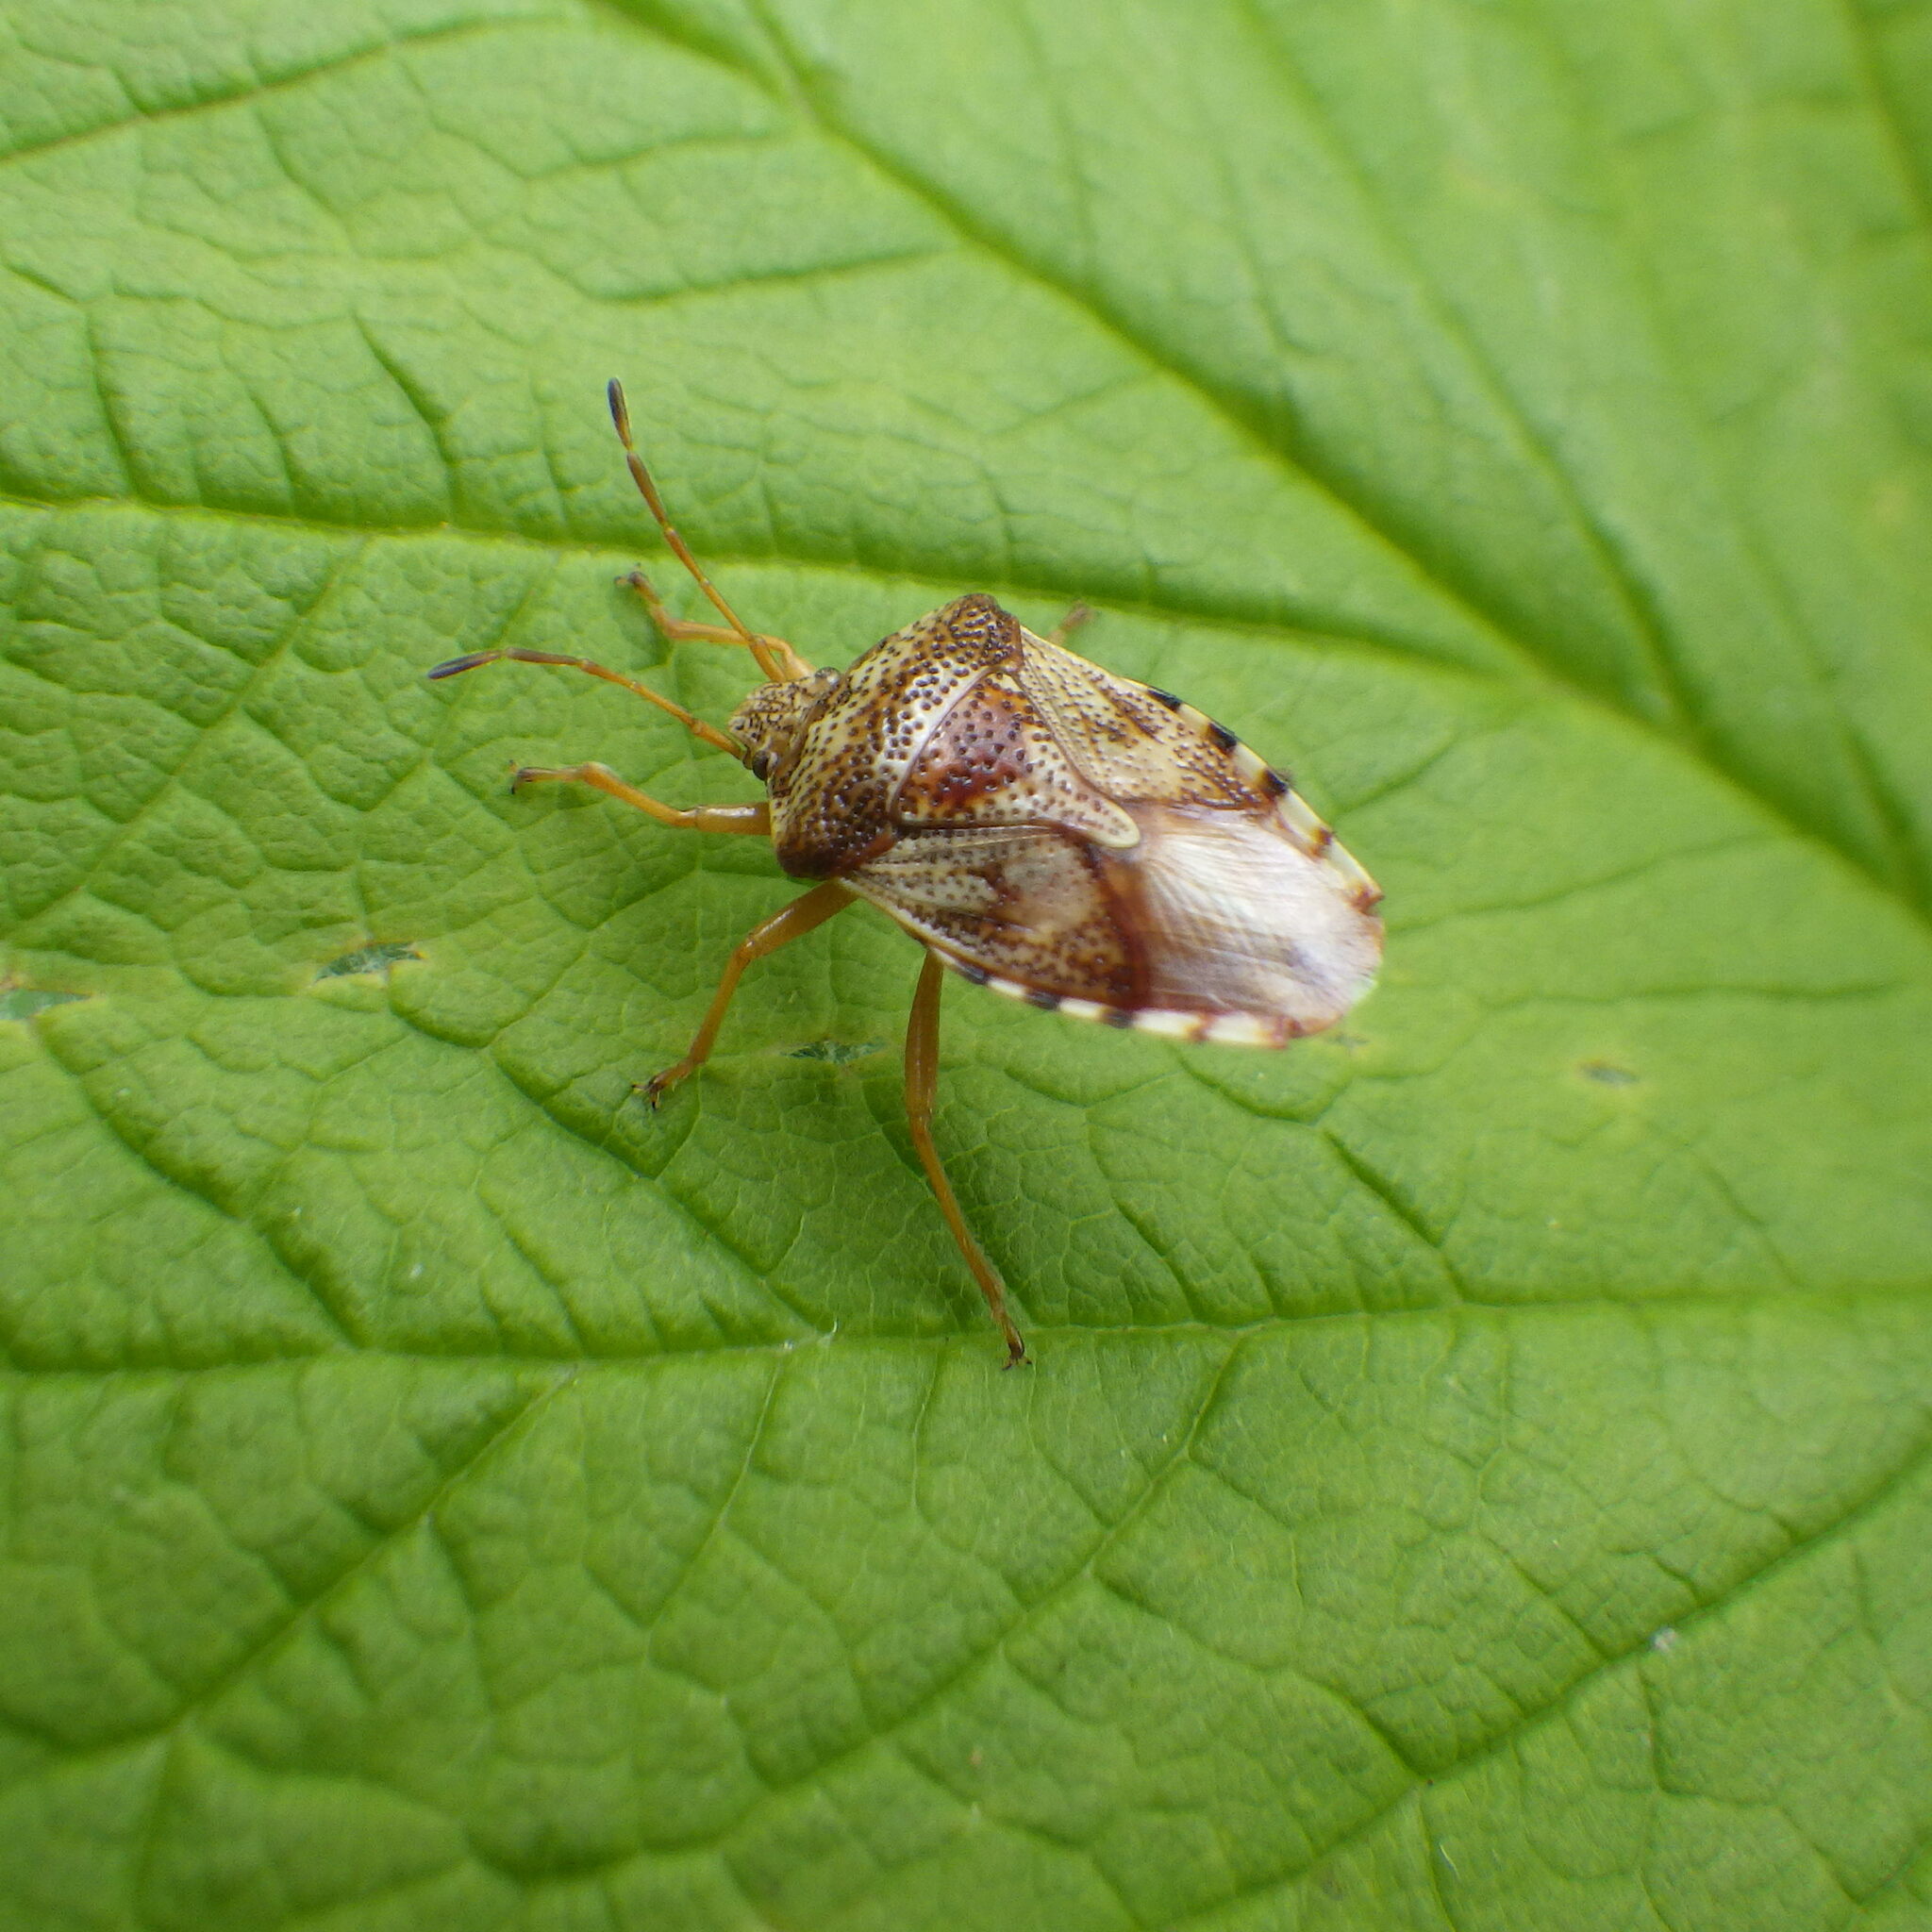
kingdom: Animalia
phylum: Arthropoda
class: Insecta
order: Hemiptera
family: Acanthosomatidae
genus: Elasmucha
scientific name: Elasmucha lateralis
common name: Shield bug
